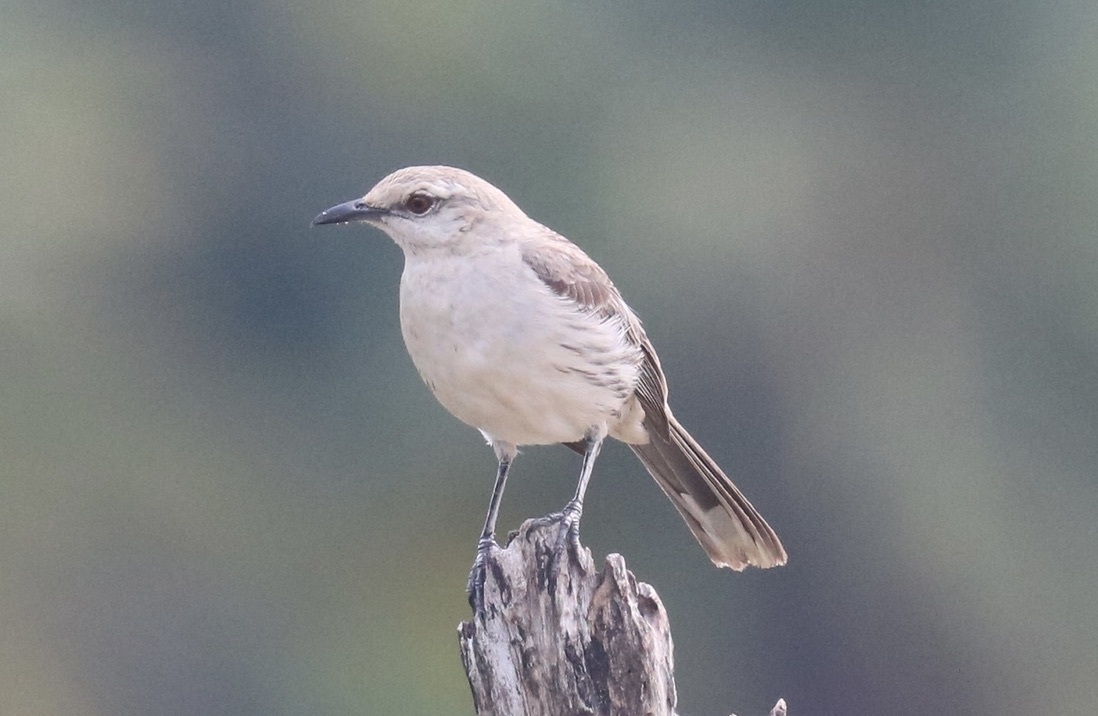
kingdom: Animalia
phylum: Chordata
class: Aves
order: Passeriformes
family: Mimidae
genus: Mimus
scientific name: Mimus gilvus
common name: Tropical mockingbird
